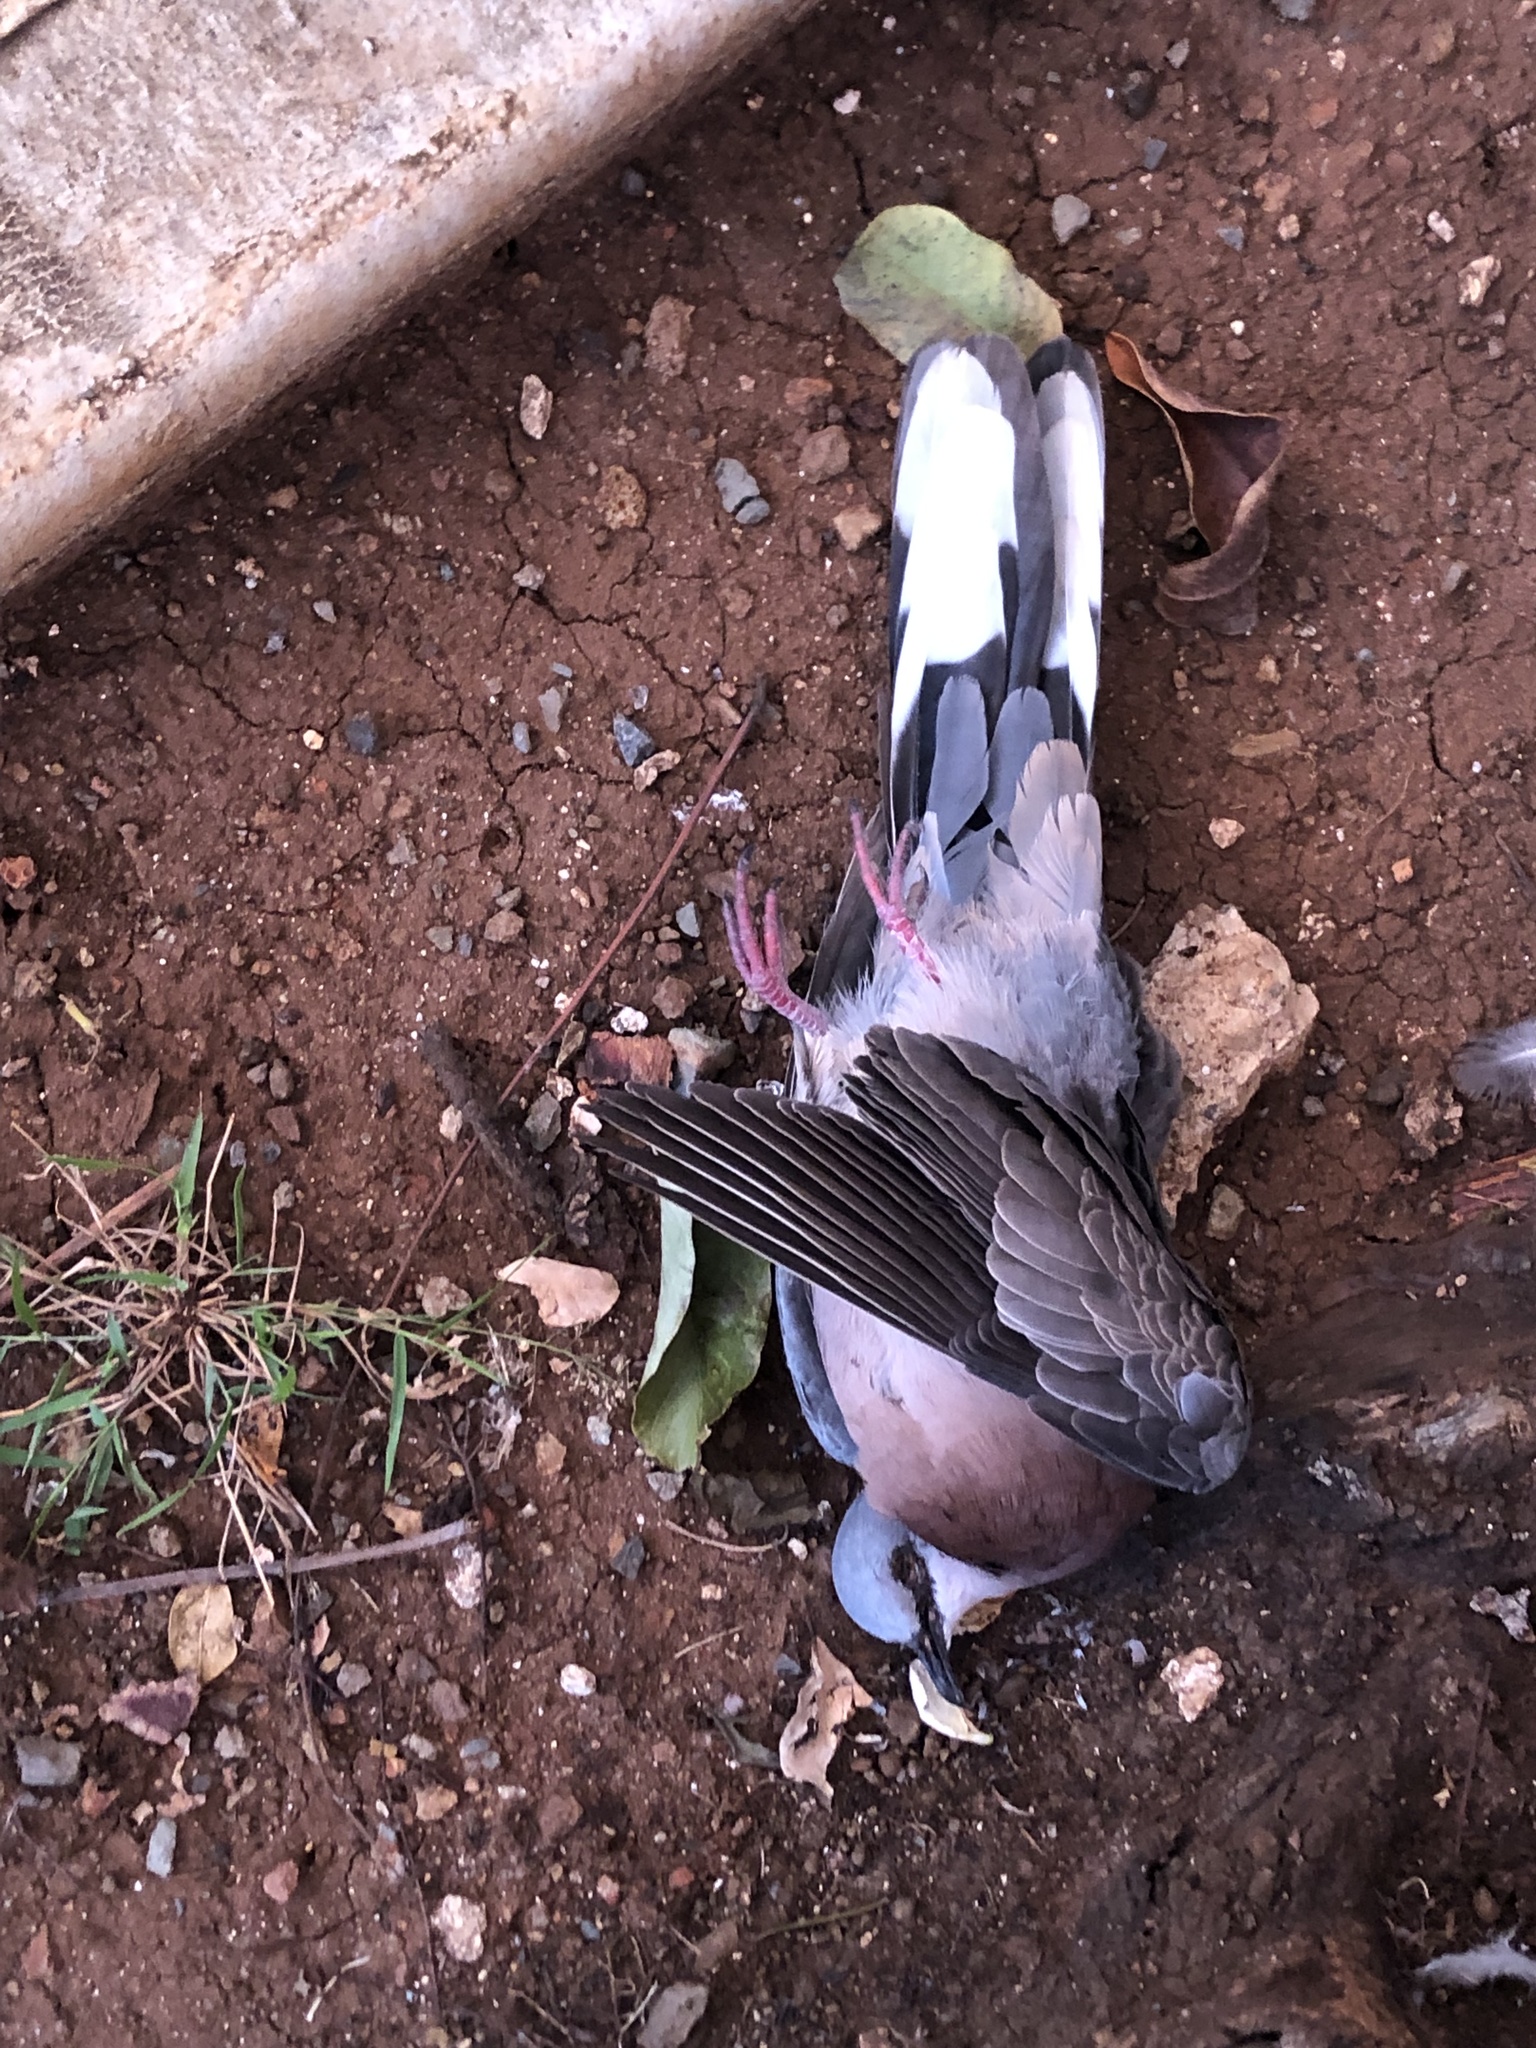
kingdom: Animalia
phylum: Chordata
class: Aves
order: Columbiformes
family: Columbidae
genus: Spilopelia
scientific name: Spilopelia chinensis
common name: Spotted dove
